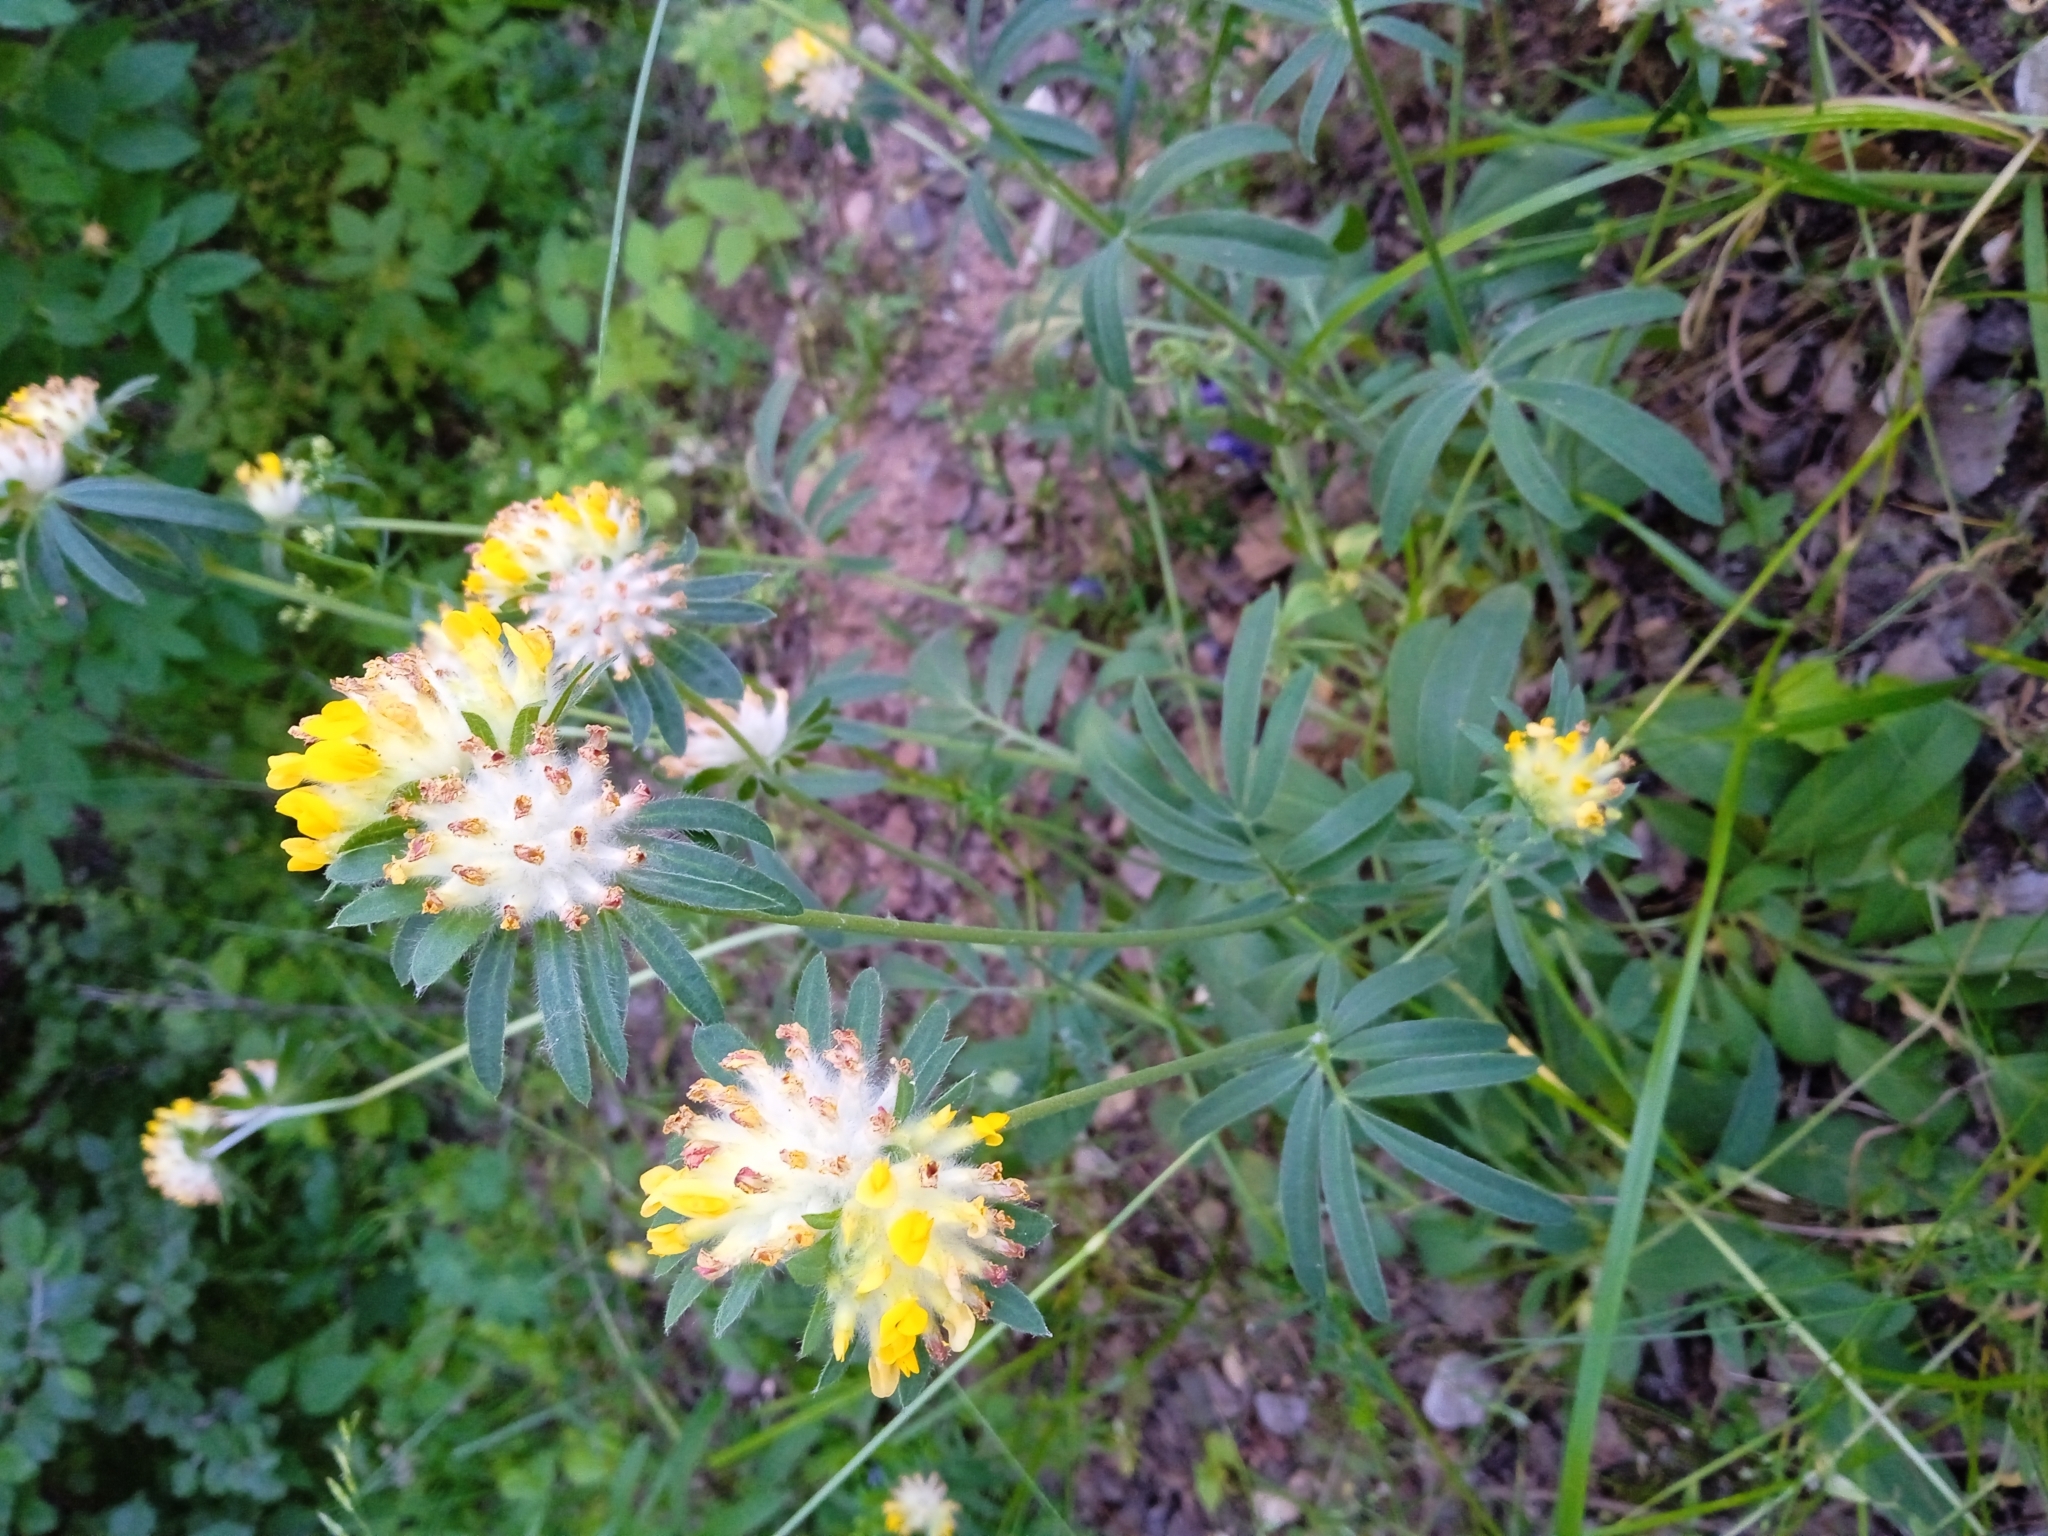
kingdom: Plantae
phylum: Tracheophyta
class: Magnoliopsida
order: Fabales
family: Fabaceae
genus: Anthyllis
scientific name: Anthyllis vulneraria
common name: Kidney vetch
